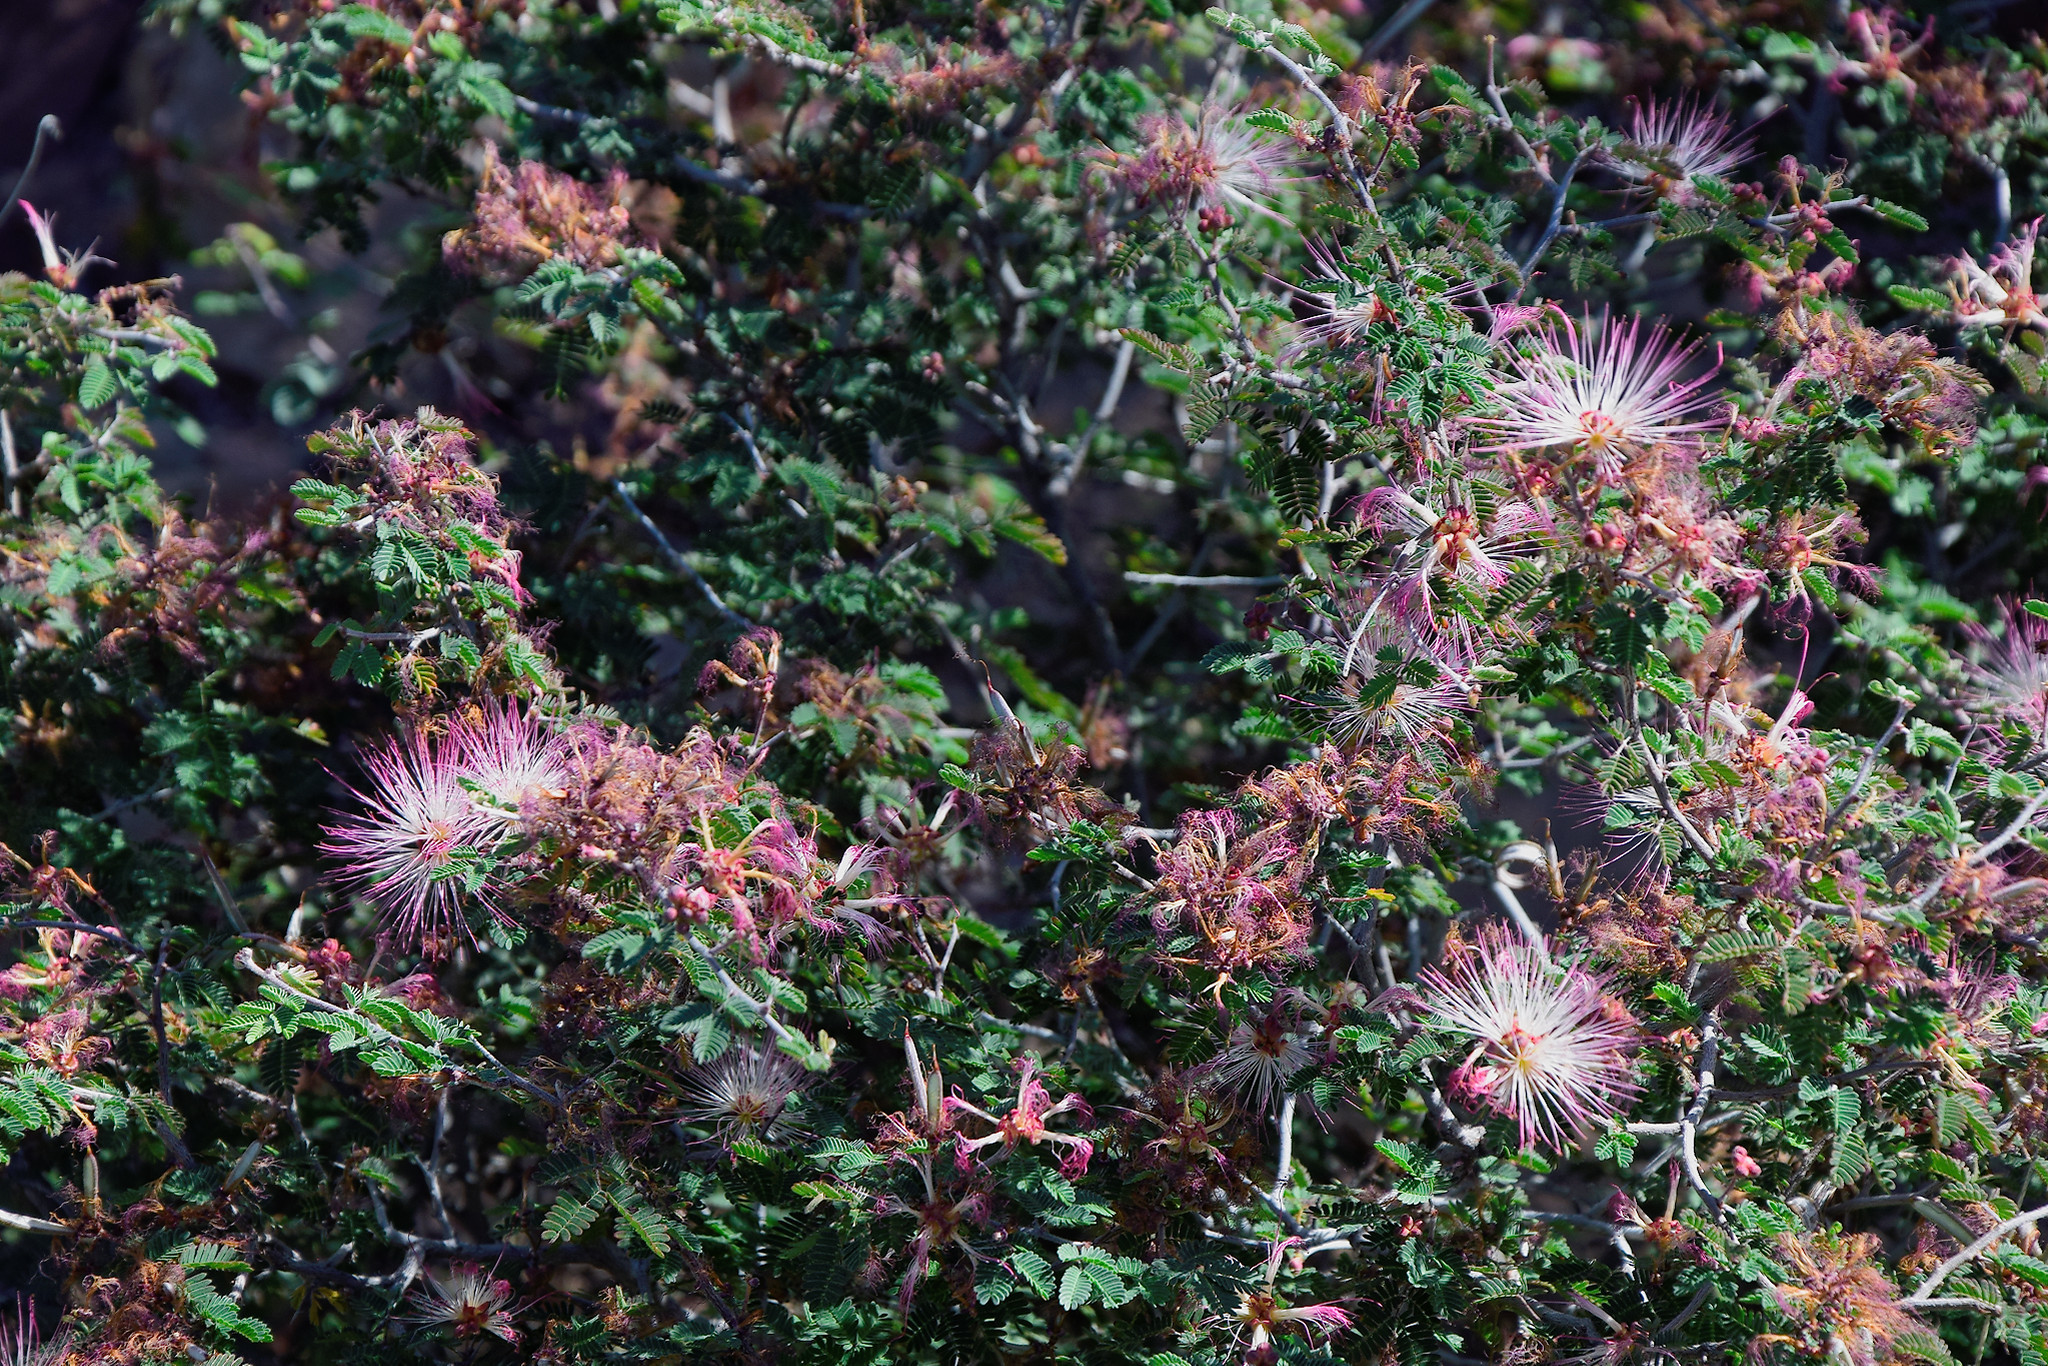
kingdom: Plantae
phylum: Tracheophyta
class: Magnoliopsida
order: Fabales
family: Fabaceae
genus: Calliandra
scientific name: Calliandra eriophylla
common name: Fairy-duster
